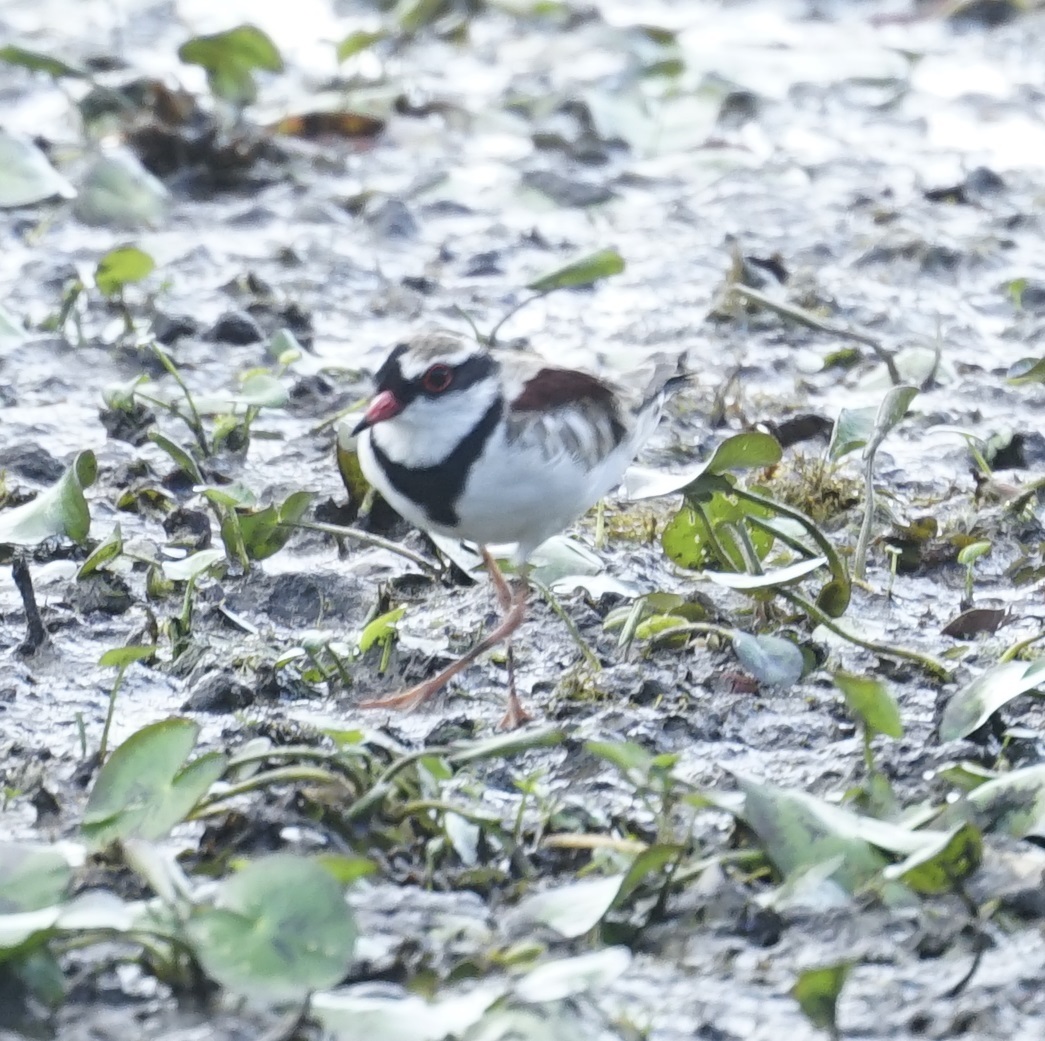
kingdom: Animalia
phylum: Chordata
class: Aves
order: Charadriiformes
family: Charadriidae
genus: Elseyornis
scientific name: Elseyornis melanops
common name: Black-fronted dotterel
